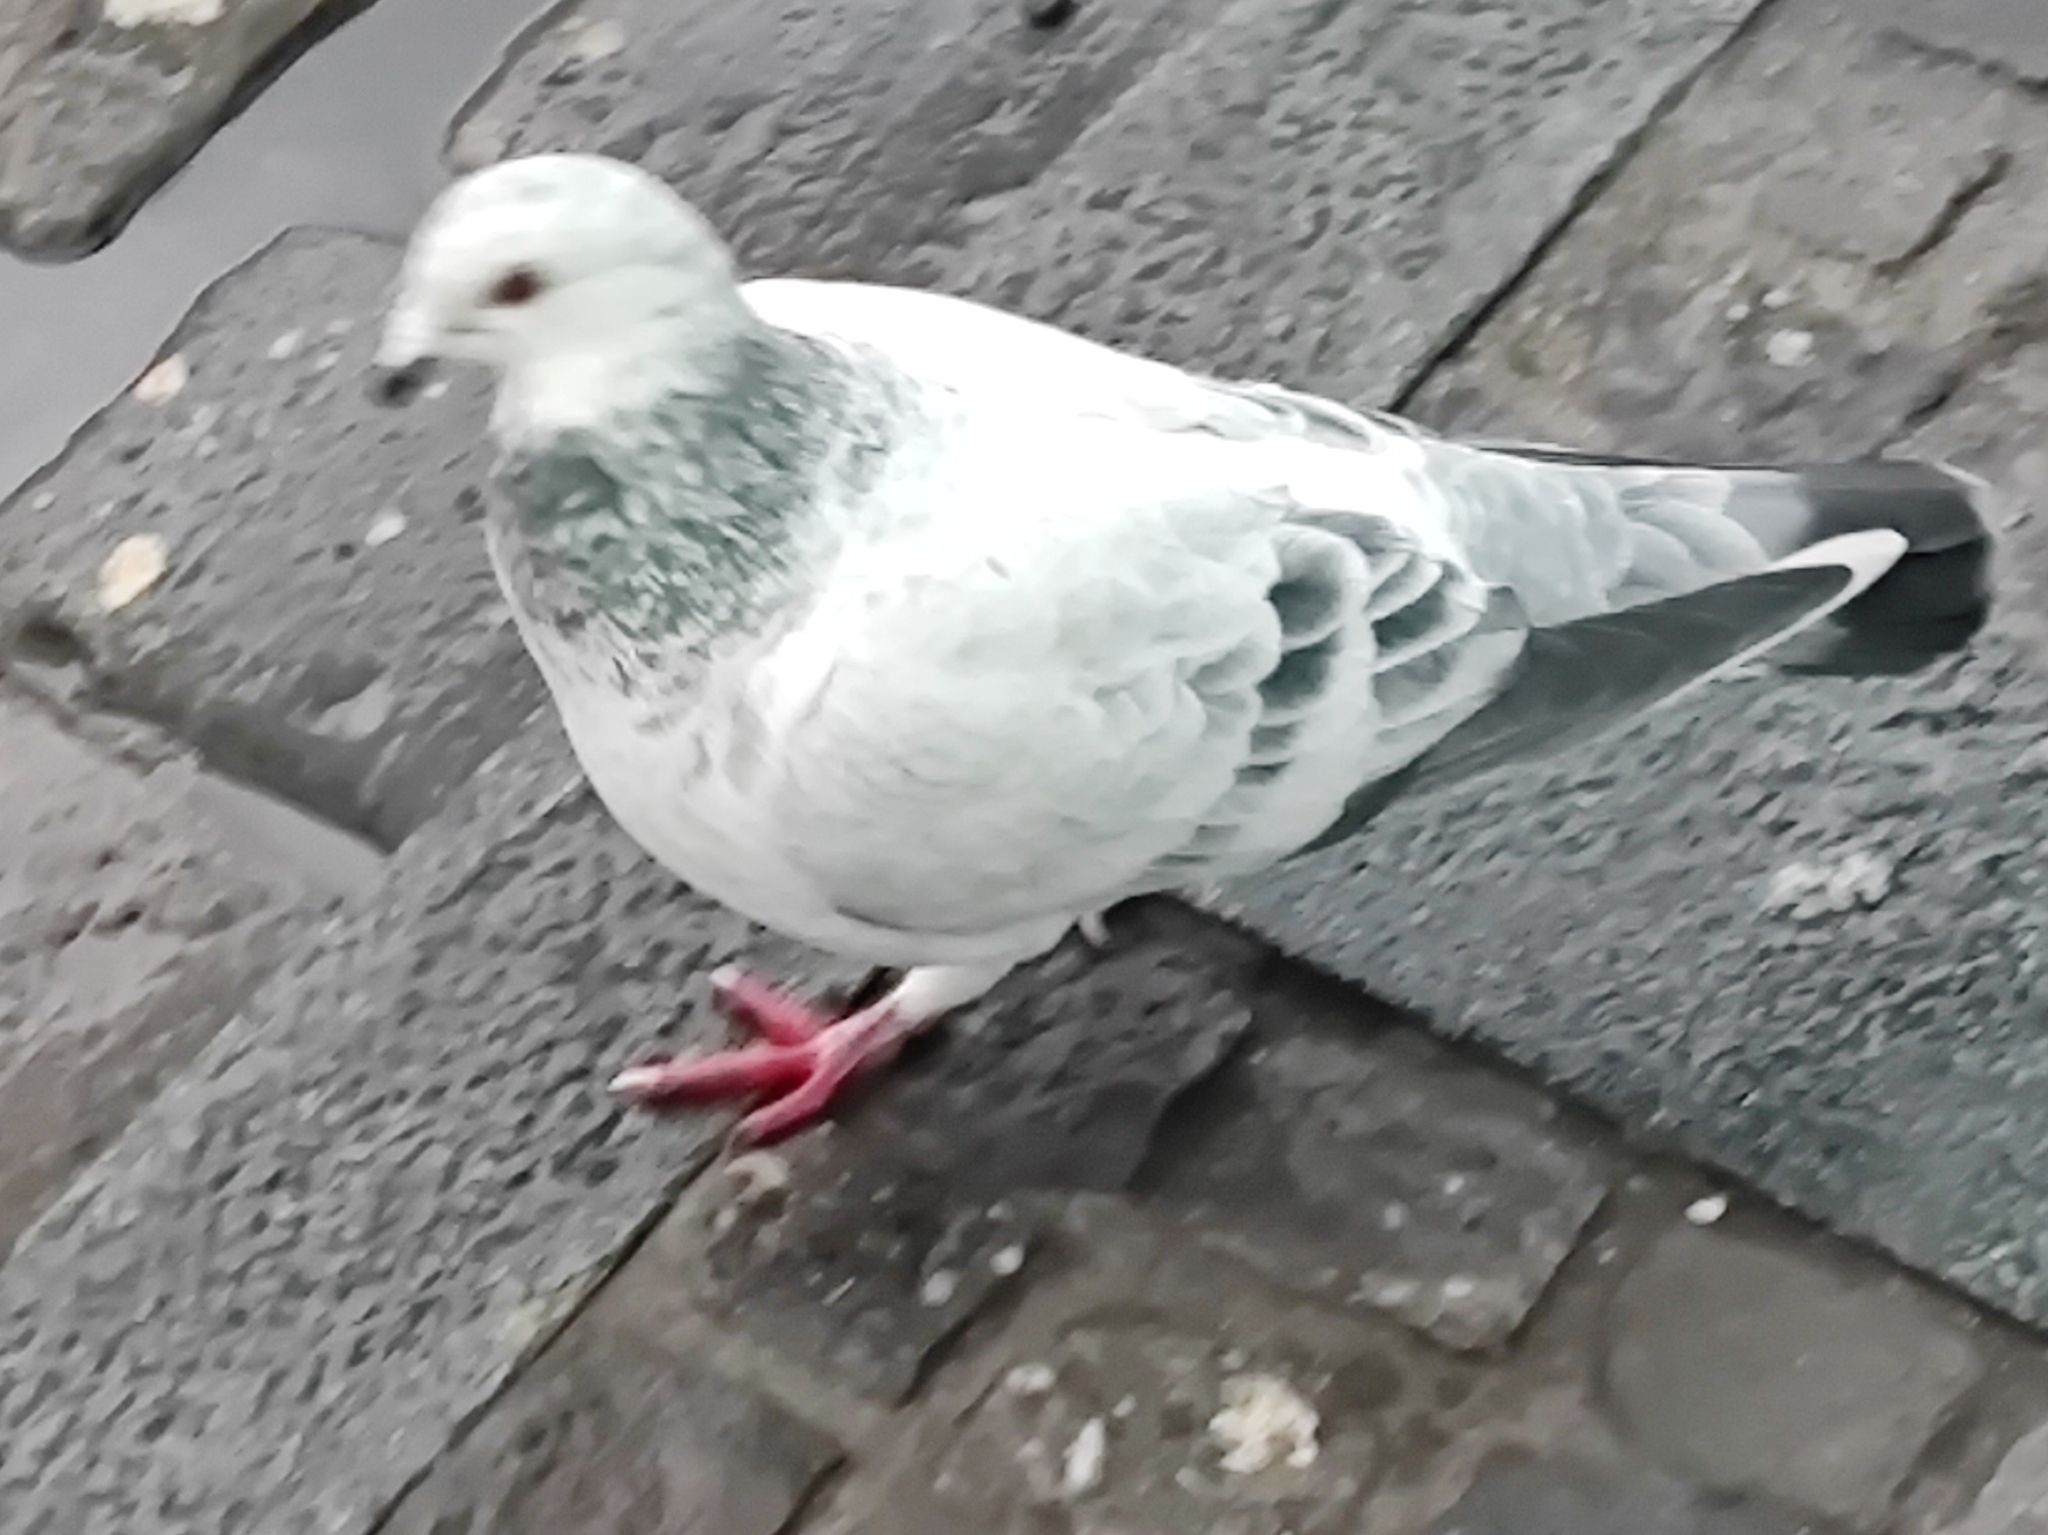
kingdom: Animalia
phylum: Chordata
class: Aves
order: Columbiformes
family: Columbidae
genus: Columba
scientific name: Columba livia
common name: Rock pigeon
